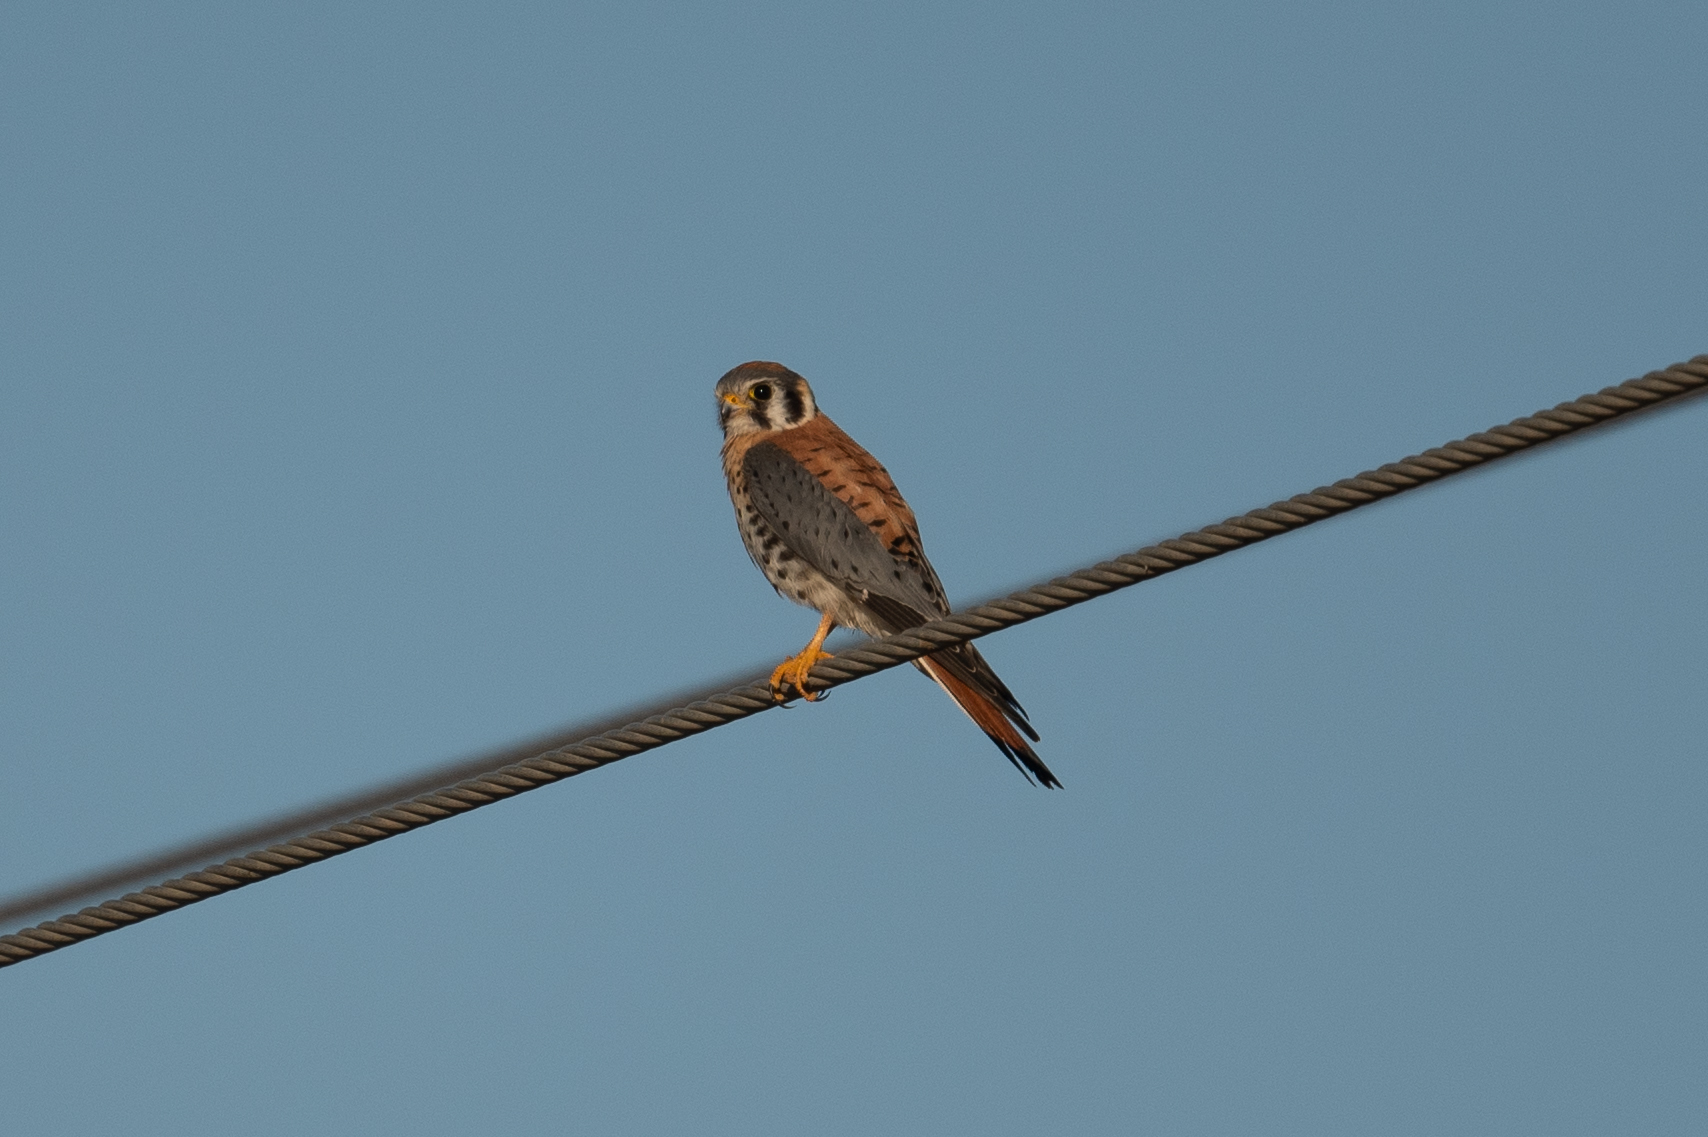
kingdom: Animalia
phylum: Chordata
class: Aves
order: Falconiformes
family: Falconidae
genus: Falco
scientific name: Falco sparverius
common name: American kestrel
